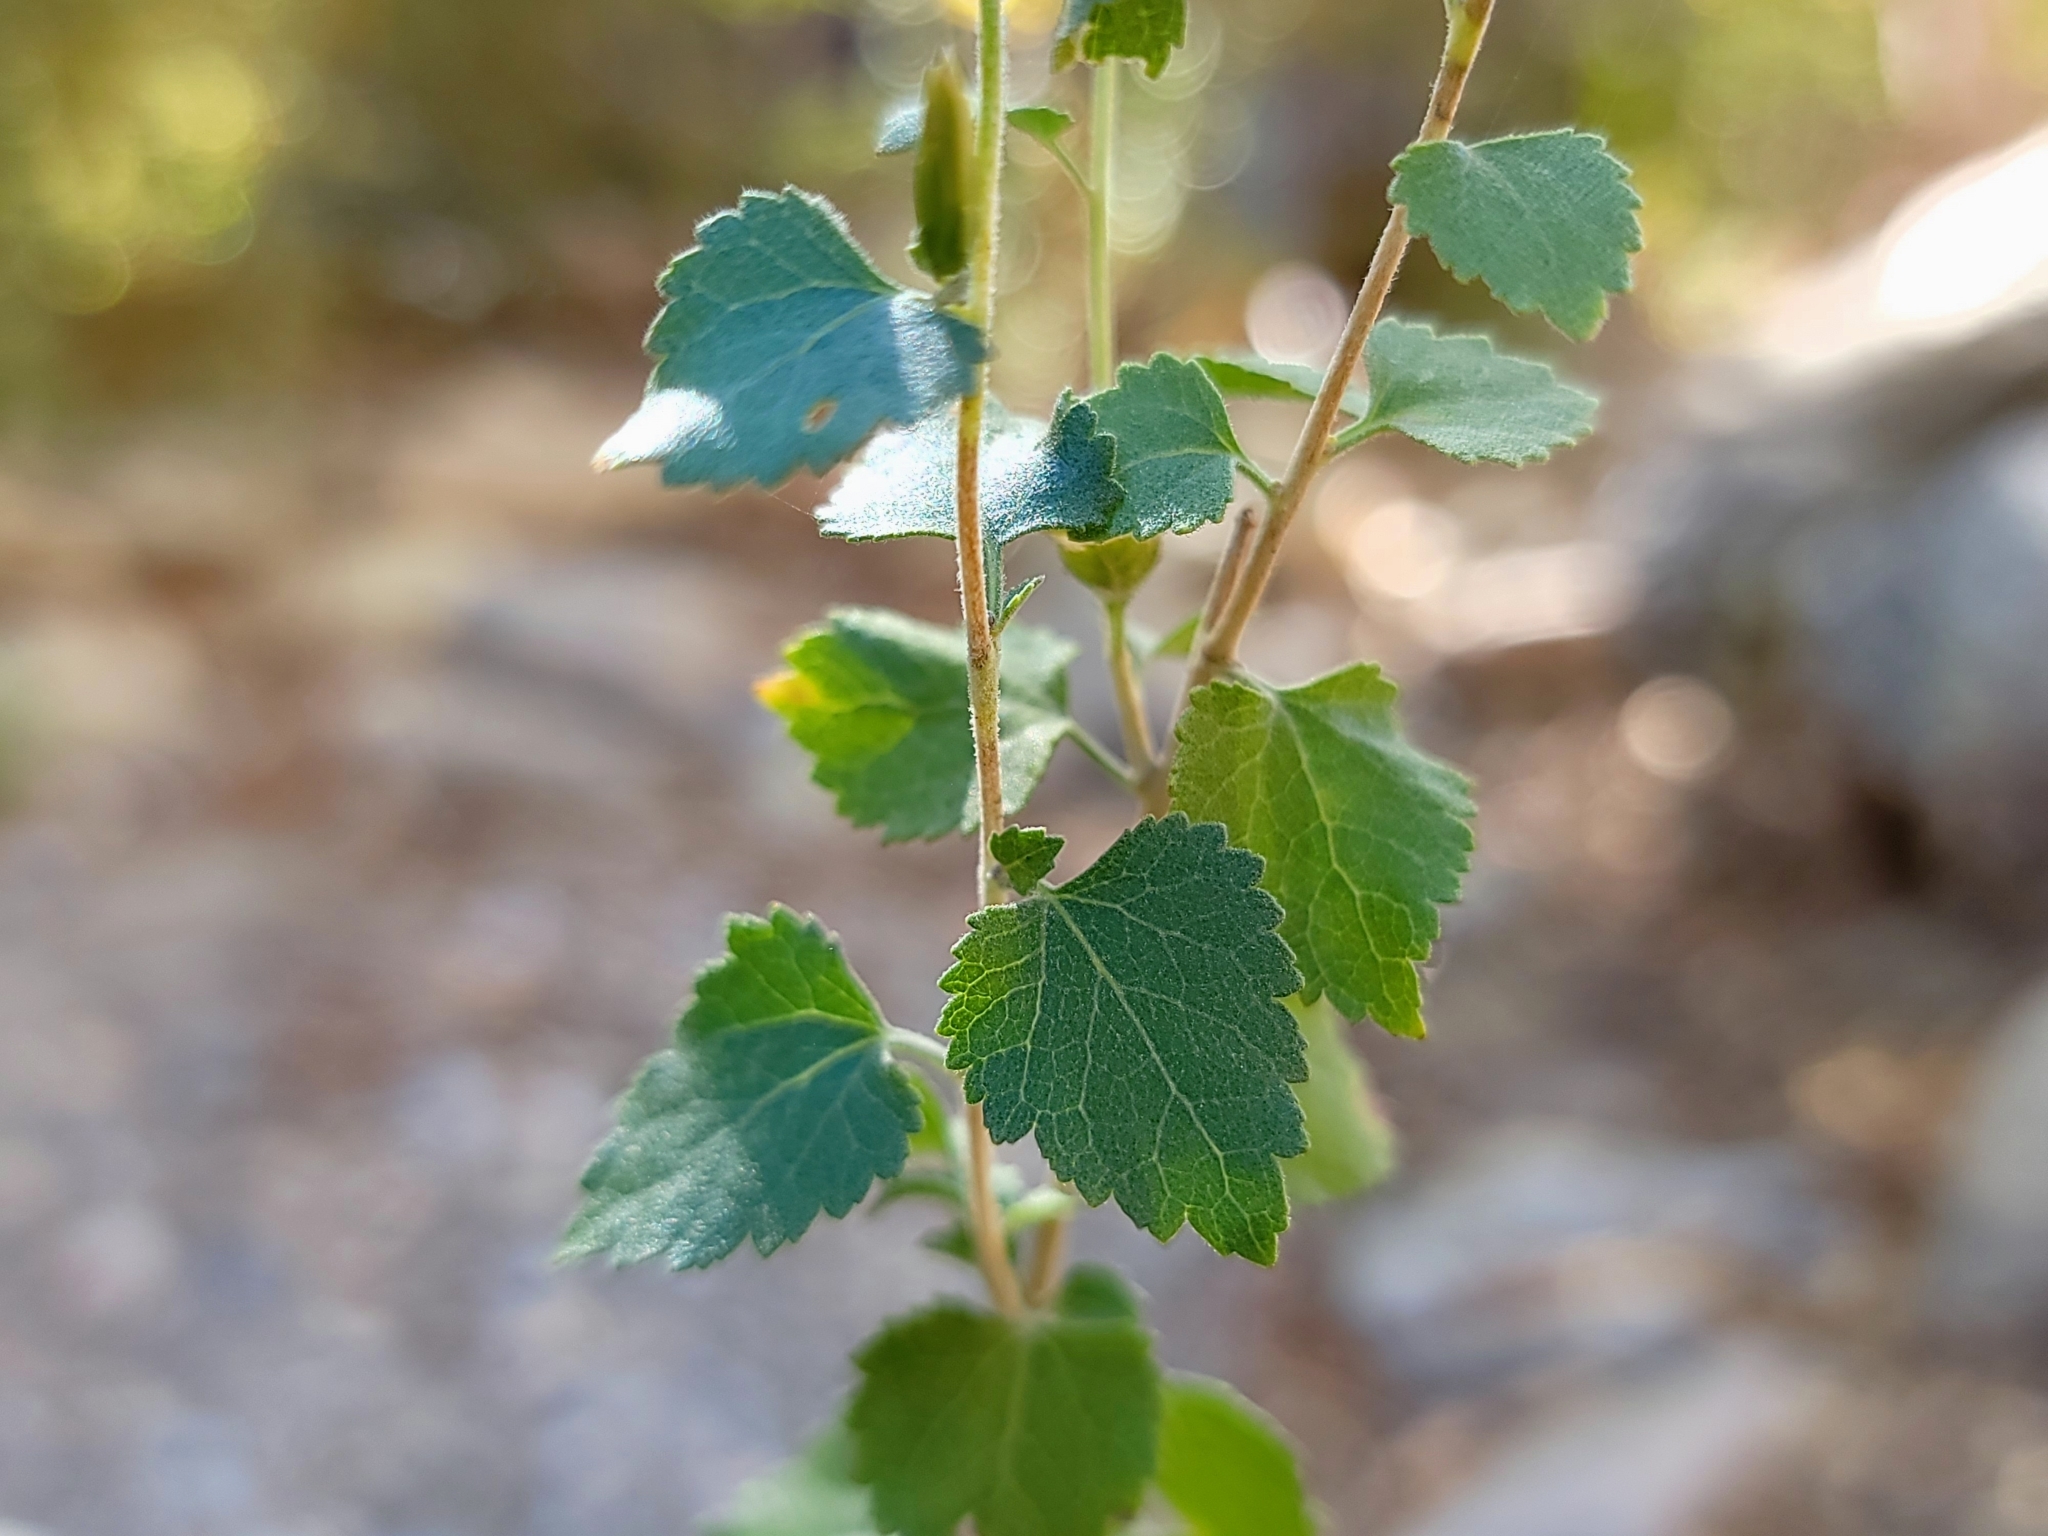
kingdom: Plantae
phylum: Tracheophyta
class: Magnoliopsida
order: Asterales
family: Asteraceae
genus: Brickellia
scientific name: Brickellia californica
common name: California brickellbush
